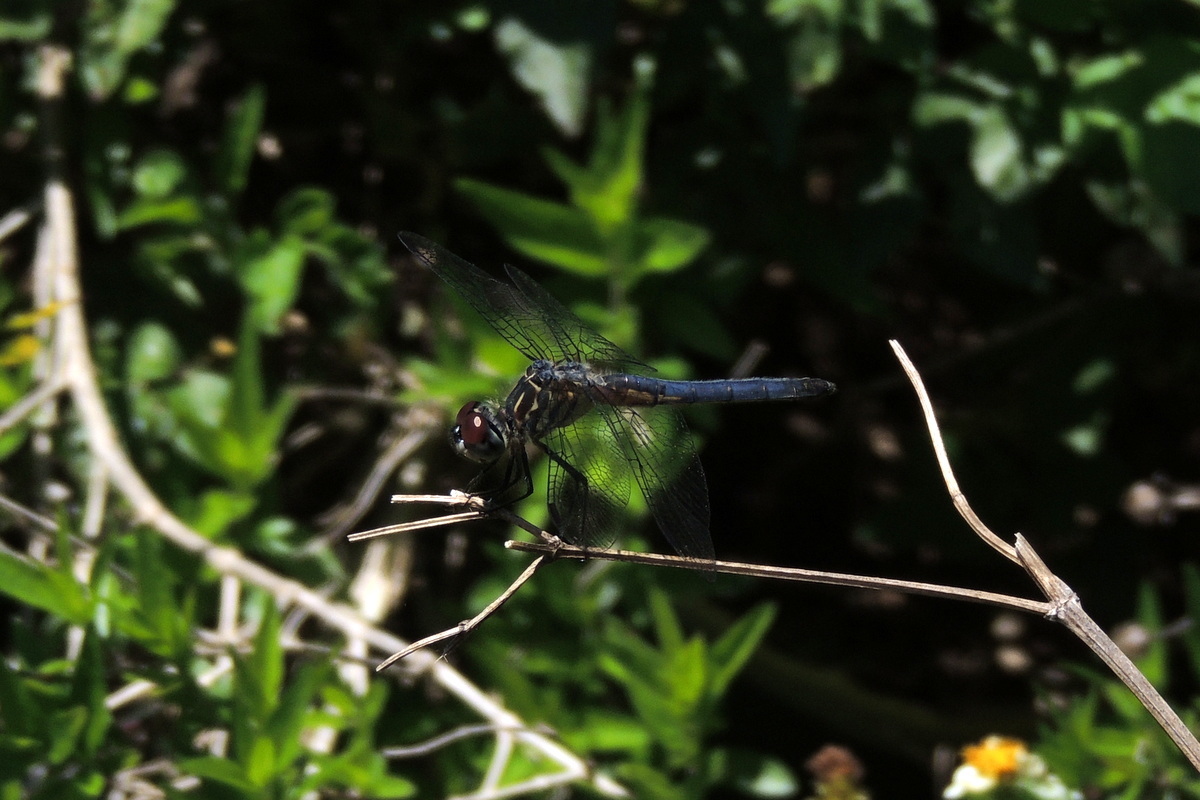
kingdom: Animalia
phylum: Arthropoda
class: Insecta
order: Odonata
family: Libellulidae
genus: Pachydiplax
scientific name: Pachydiplax longipennis
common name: Blue dasher
